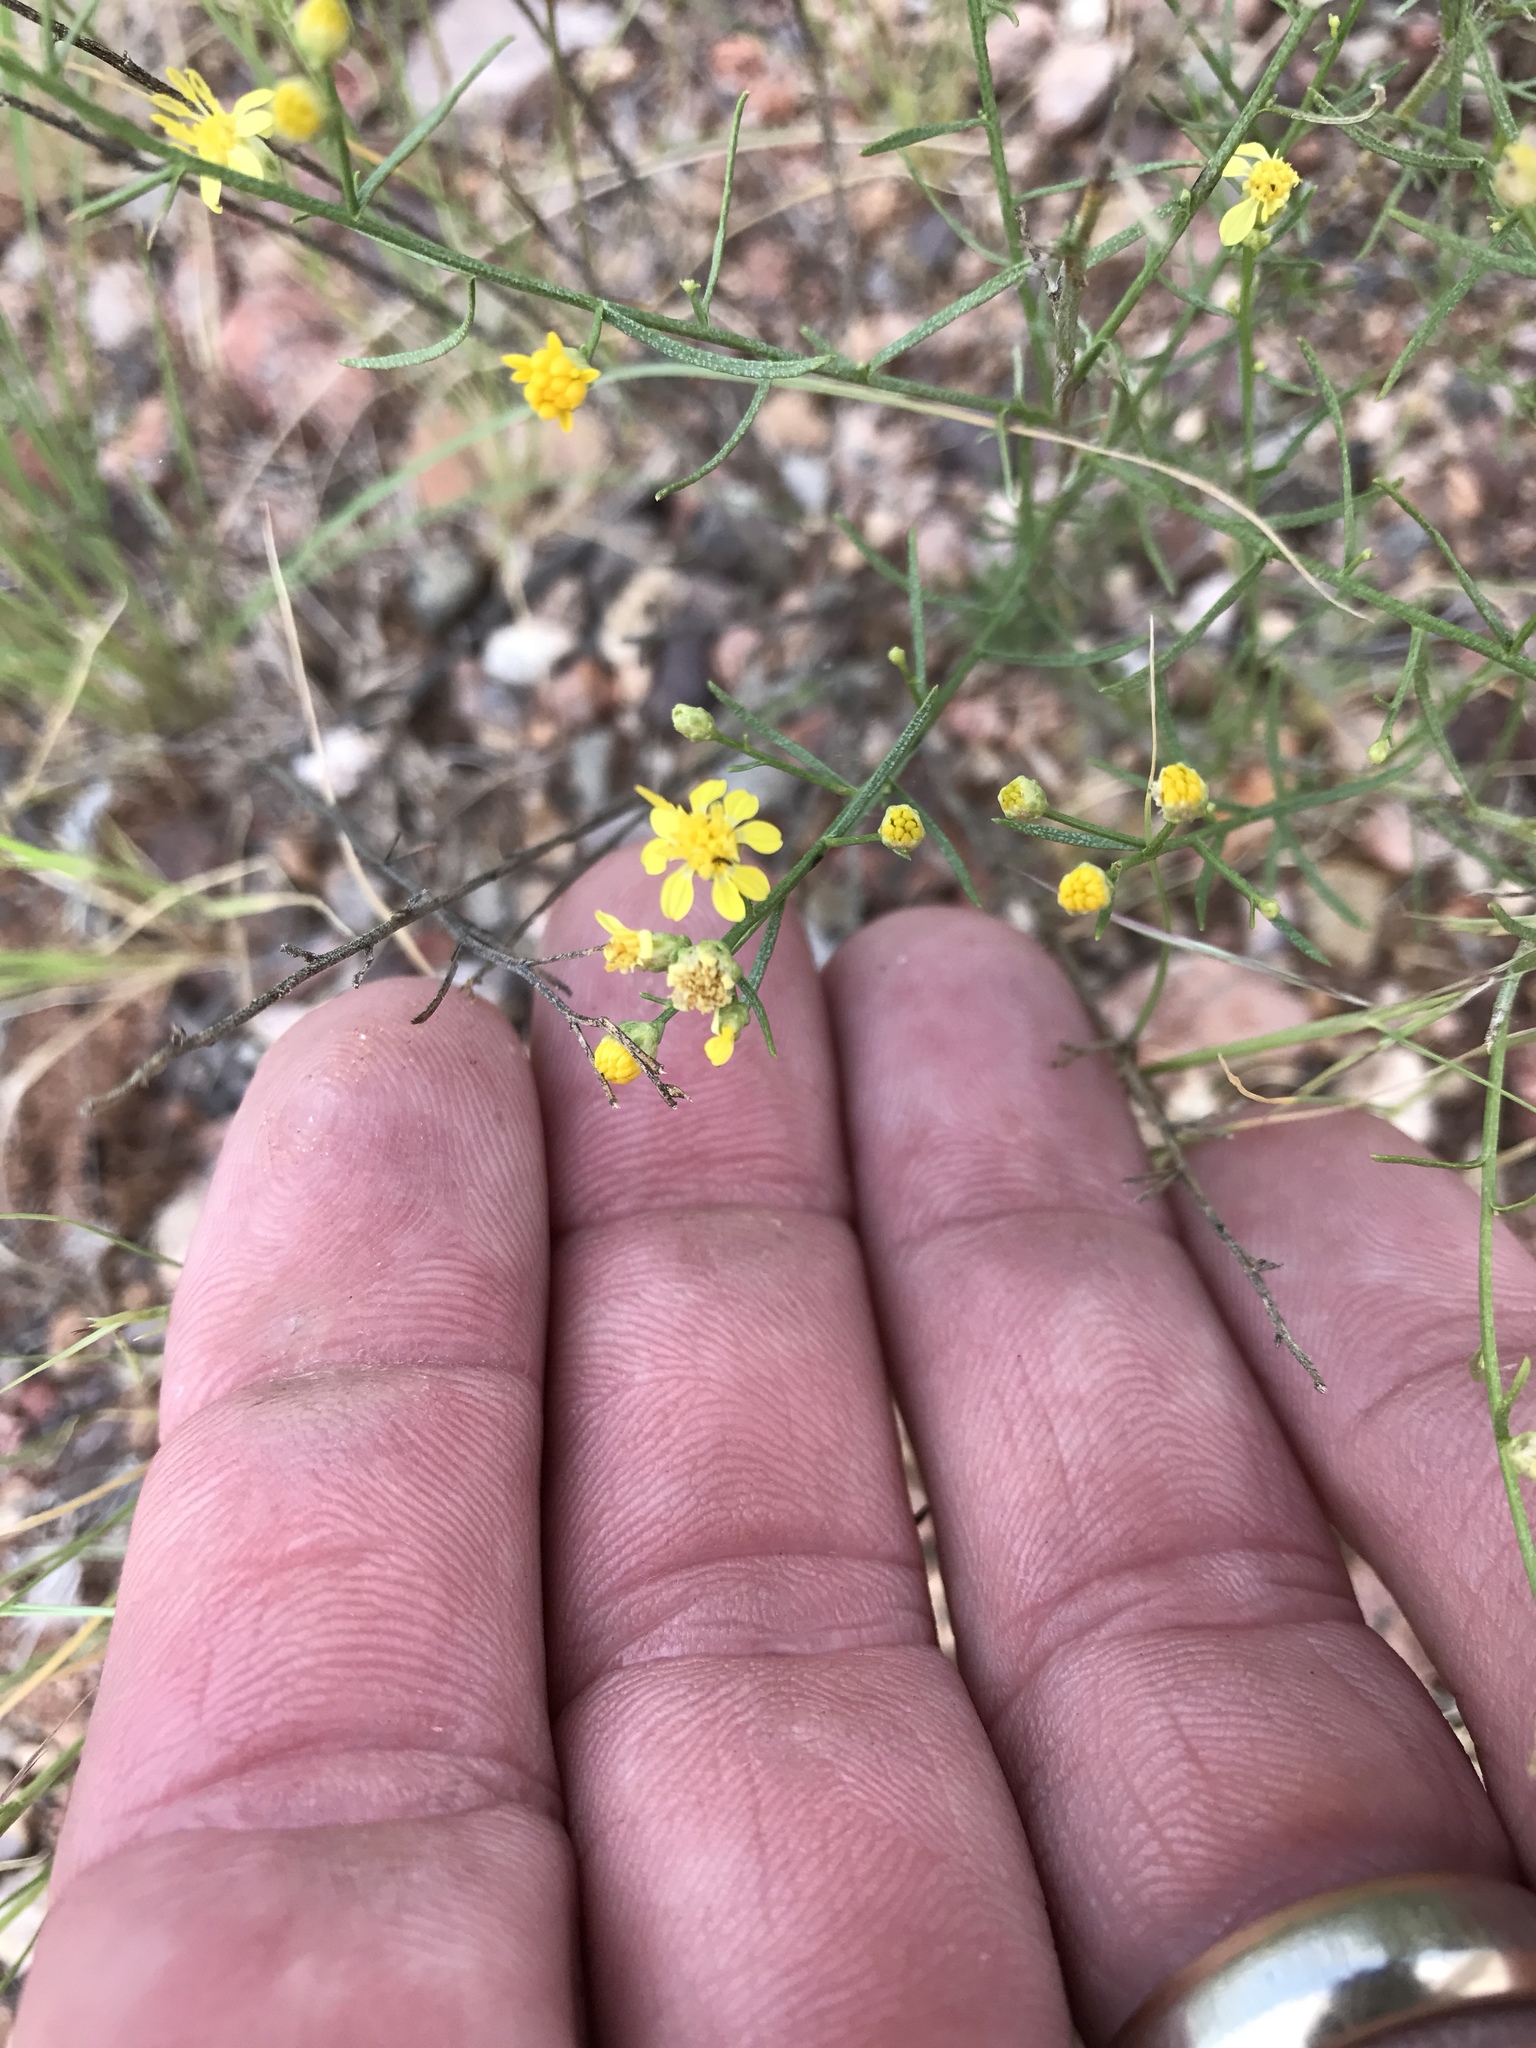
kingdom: Plantae
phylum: Tracheophyta
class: Magnoliopsida
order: Asterales
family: Asteraceae
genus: Gutierrezia
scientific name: Gutierrezia sarothrae
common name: Broom snakeweed
